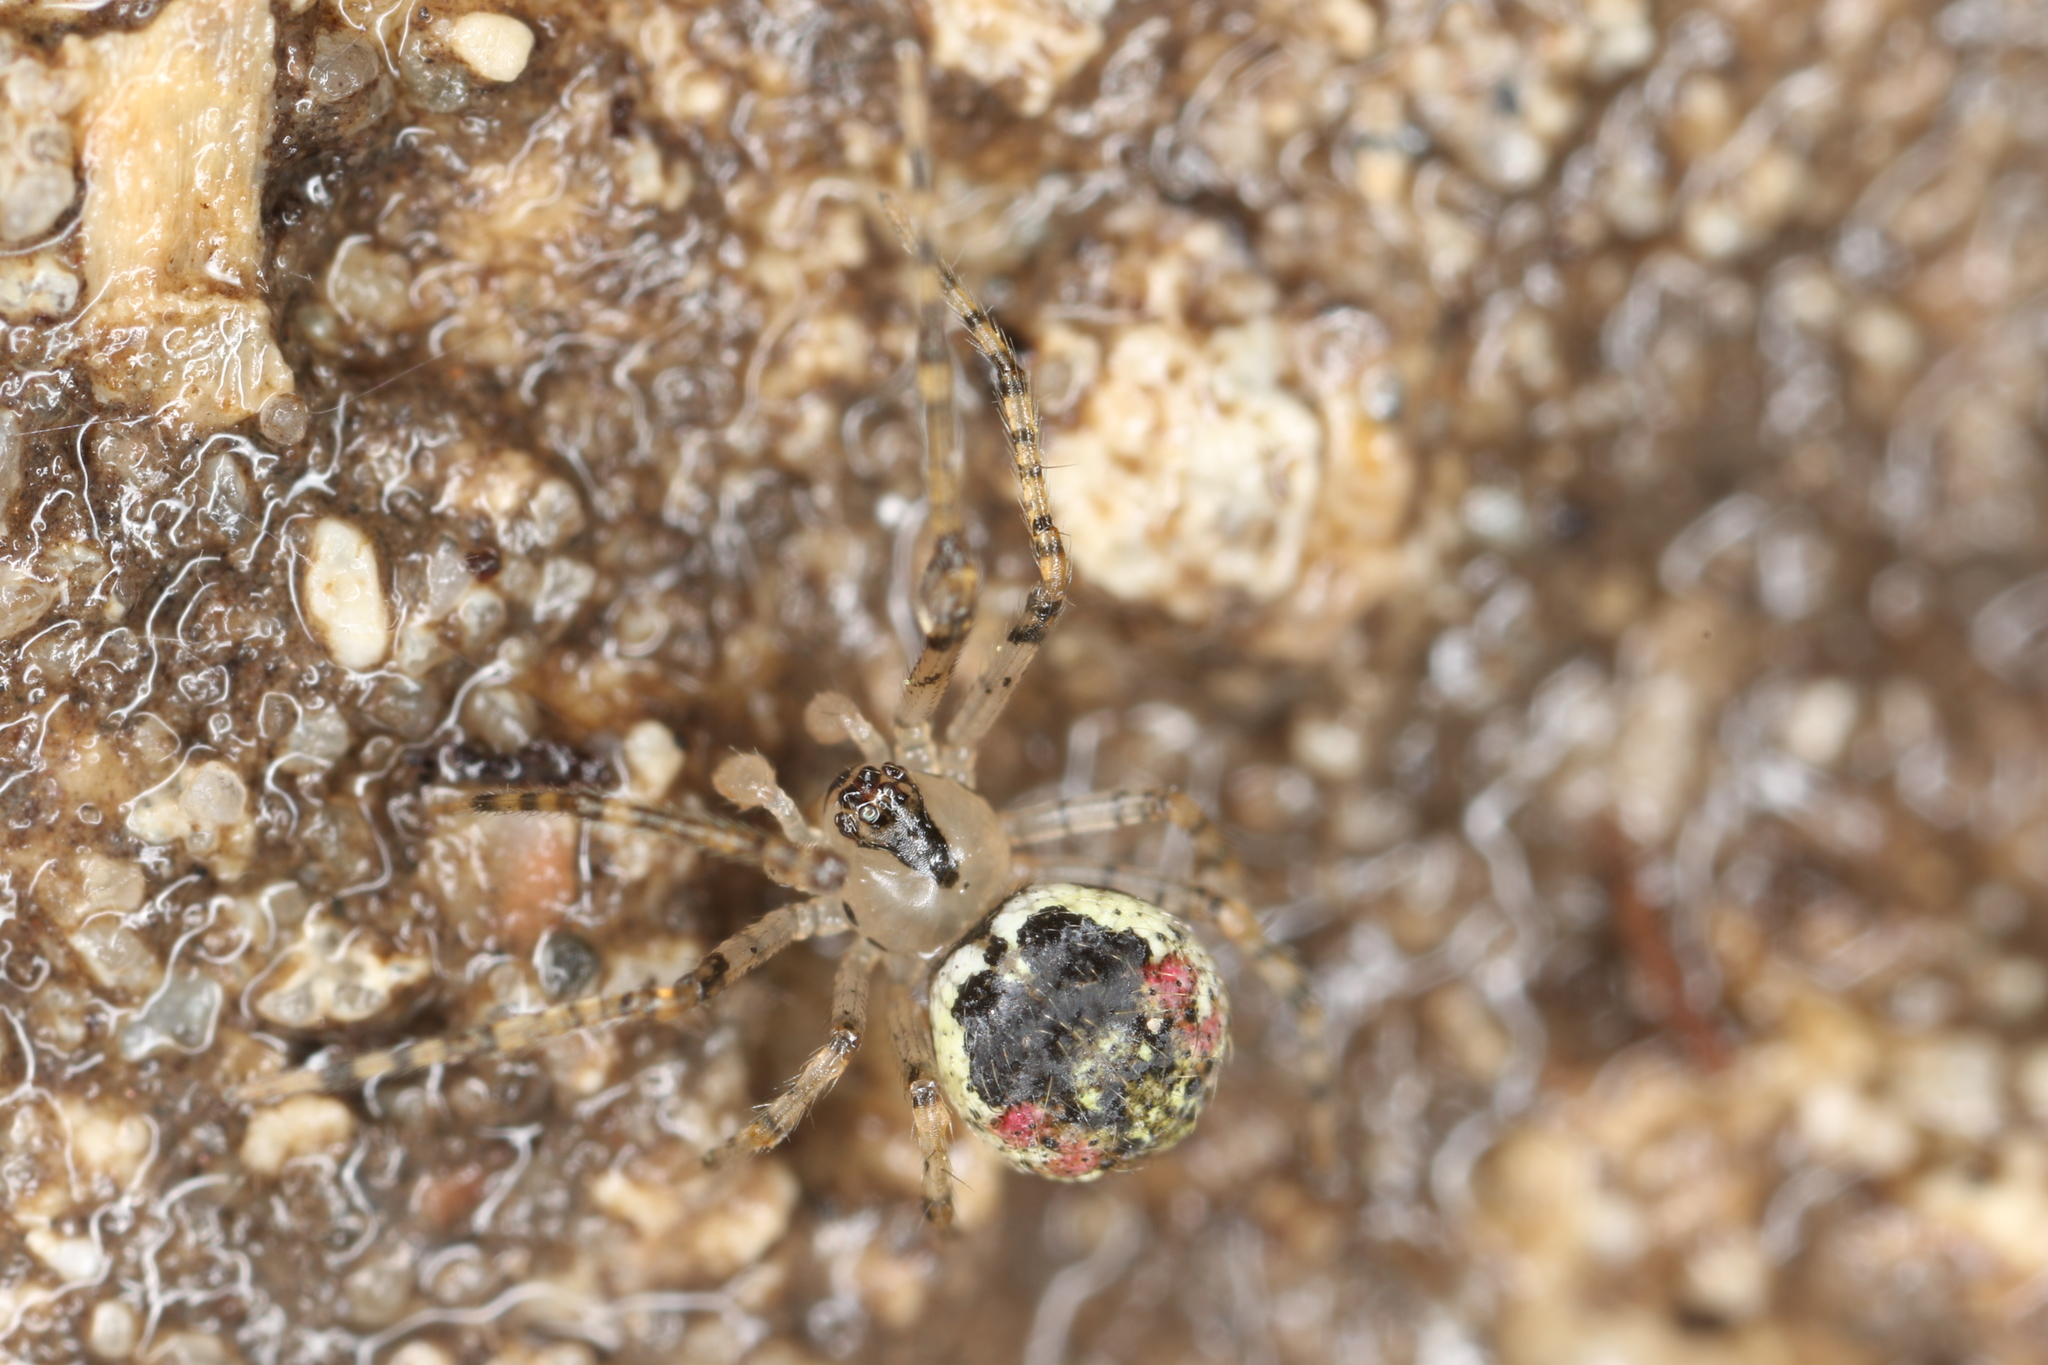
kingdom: Animalia
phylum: Arthropoda
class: Arachnida
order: Araneae
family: Theridiidae
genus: Platnickina
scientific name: Platnickina tincta
